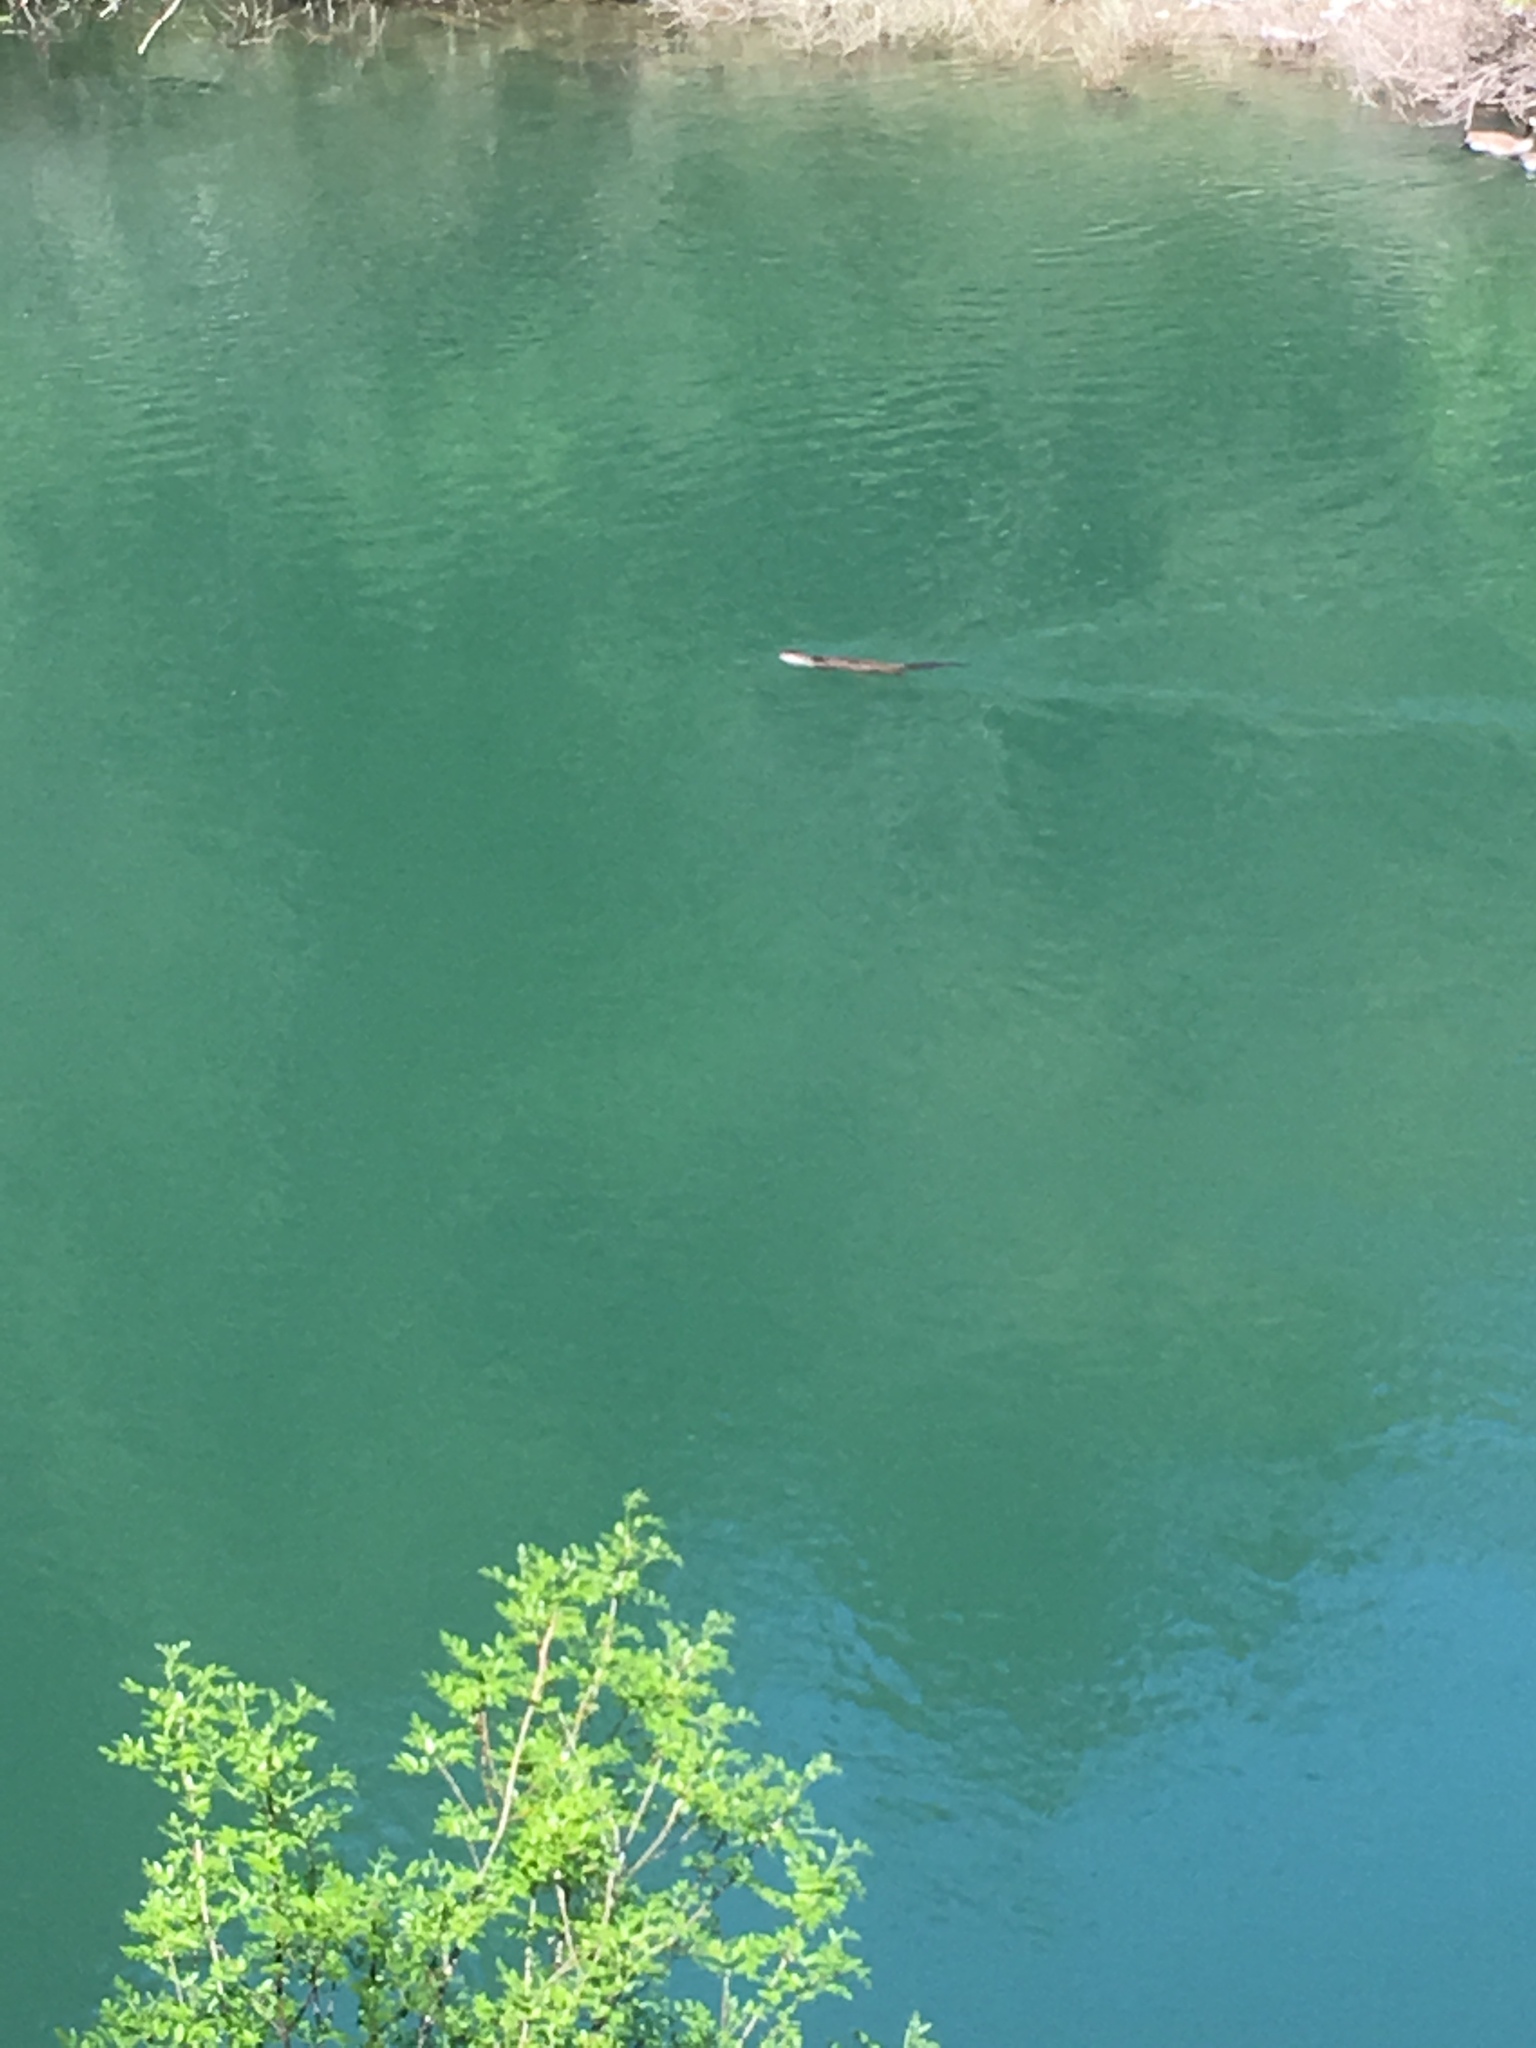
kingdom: Animalia
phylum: Chordata
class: Mammalia
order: Carnivora
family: Mustelidae
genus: Lontra
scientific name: Lontra canadensis
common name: North american river otter
